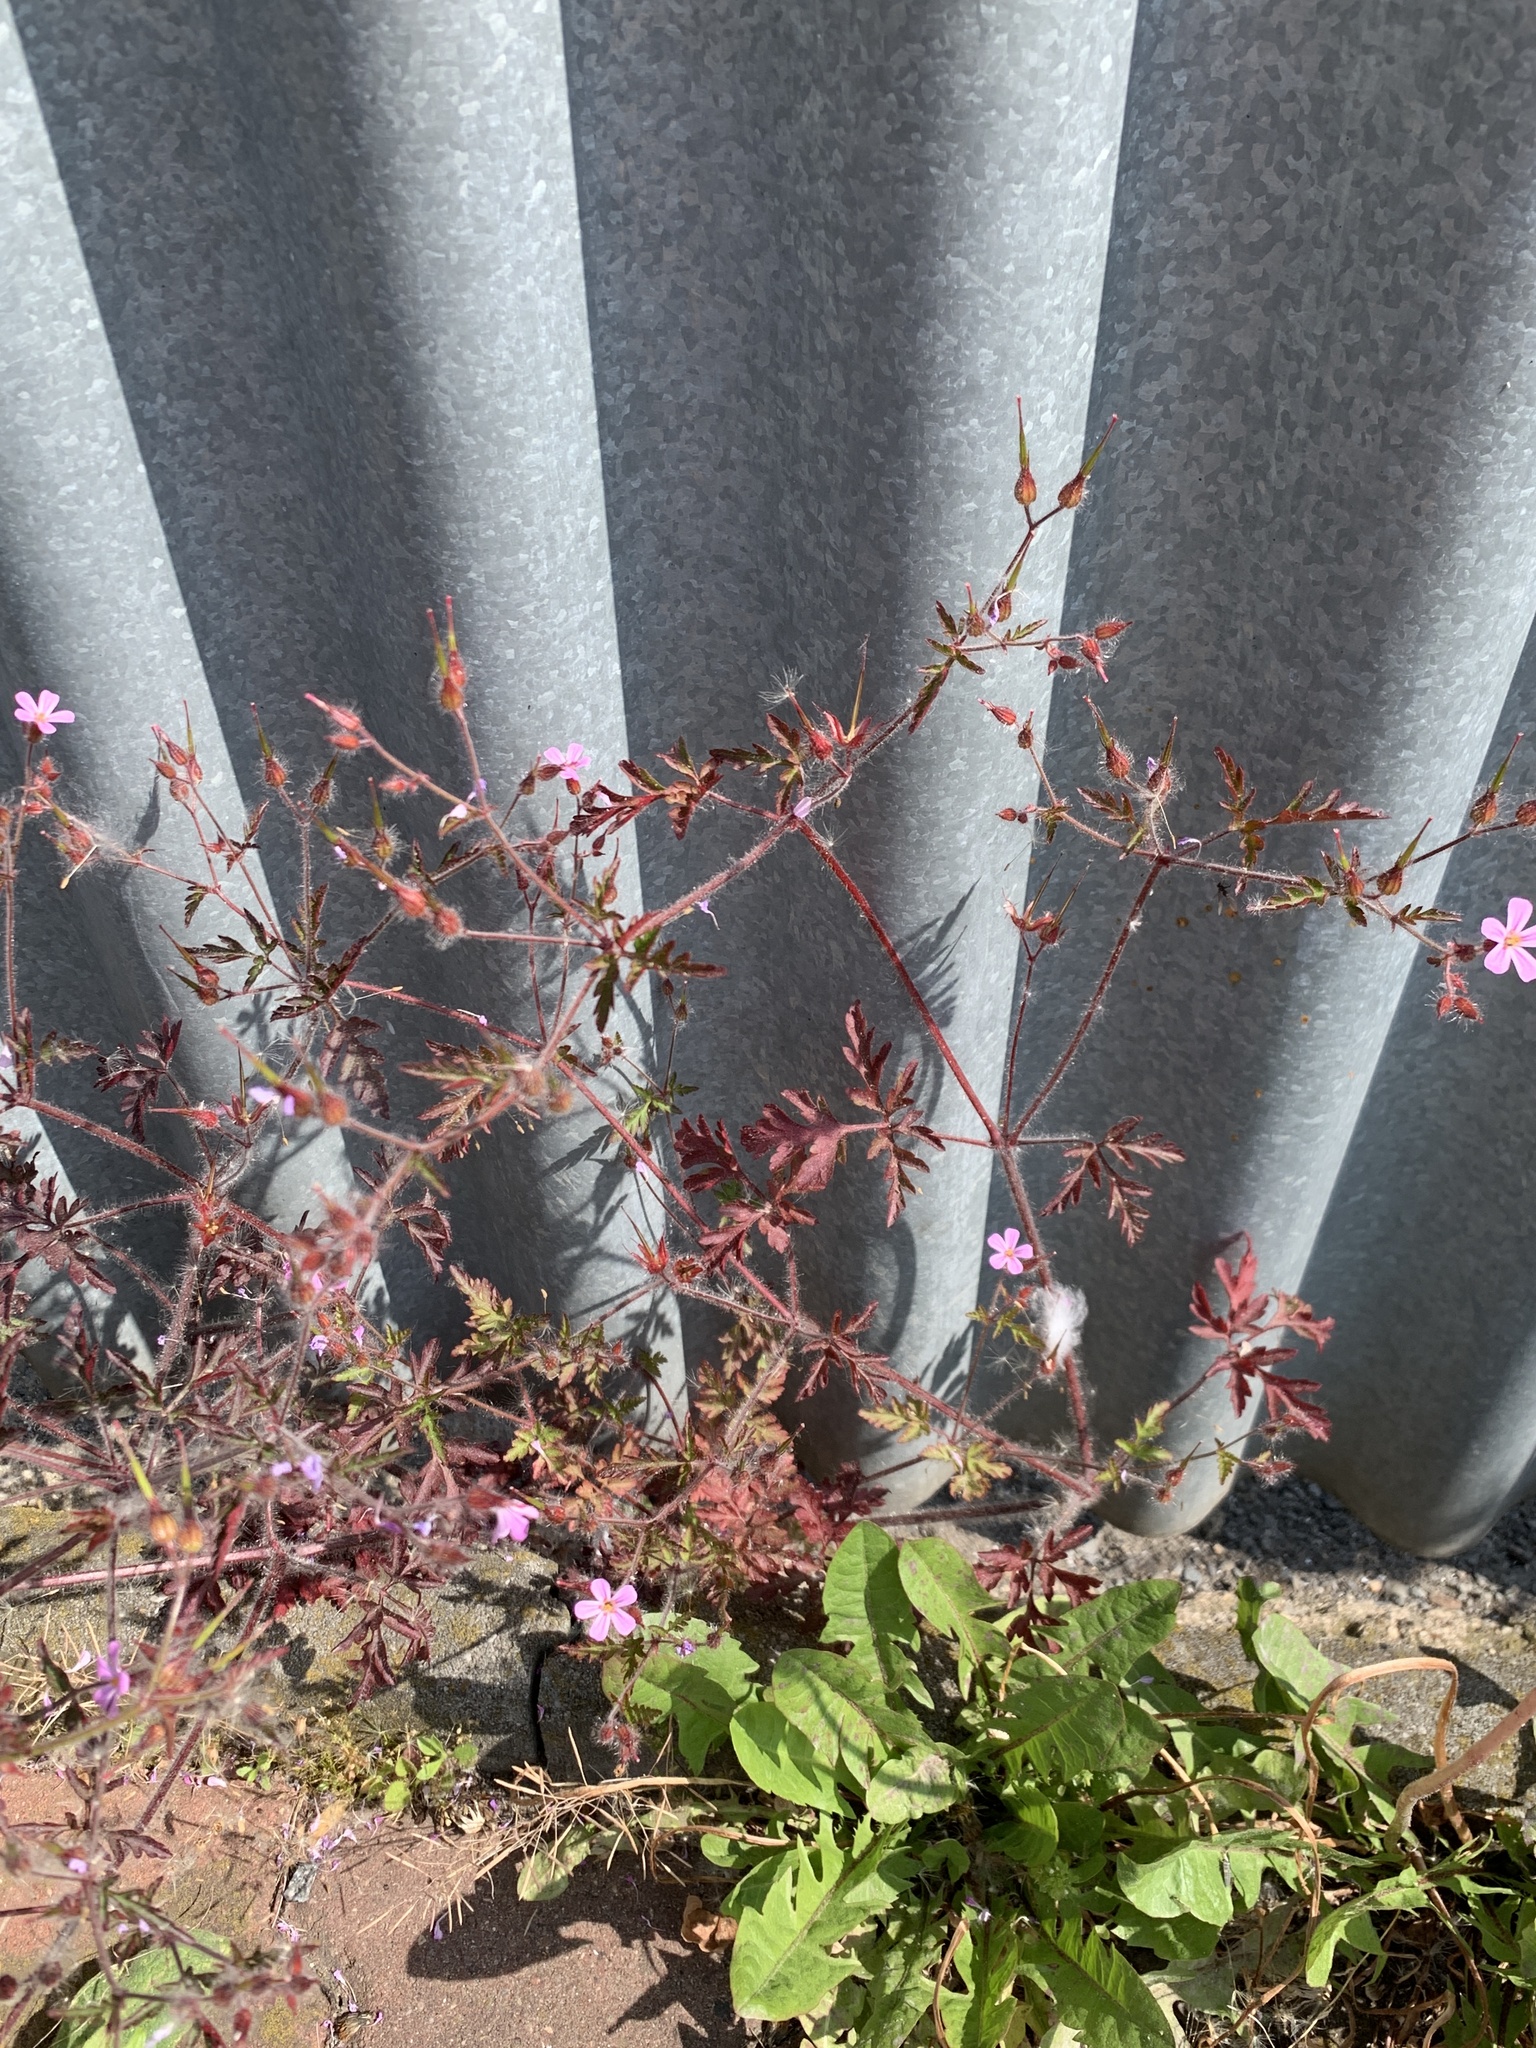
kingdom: Plantae
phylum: Tracheophyta
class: Magnoliopsida
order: Geraniales
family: Geraniaceae
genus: Geranium
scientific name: Geranium robertianum
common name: Herb-robert
